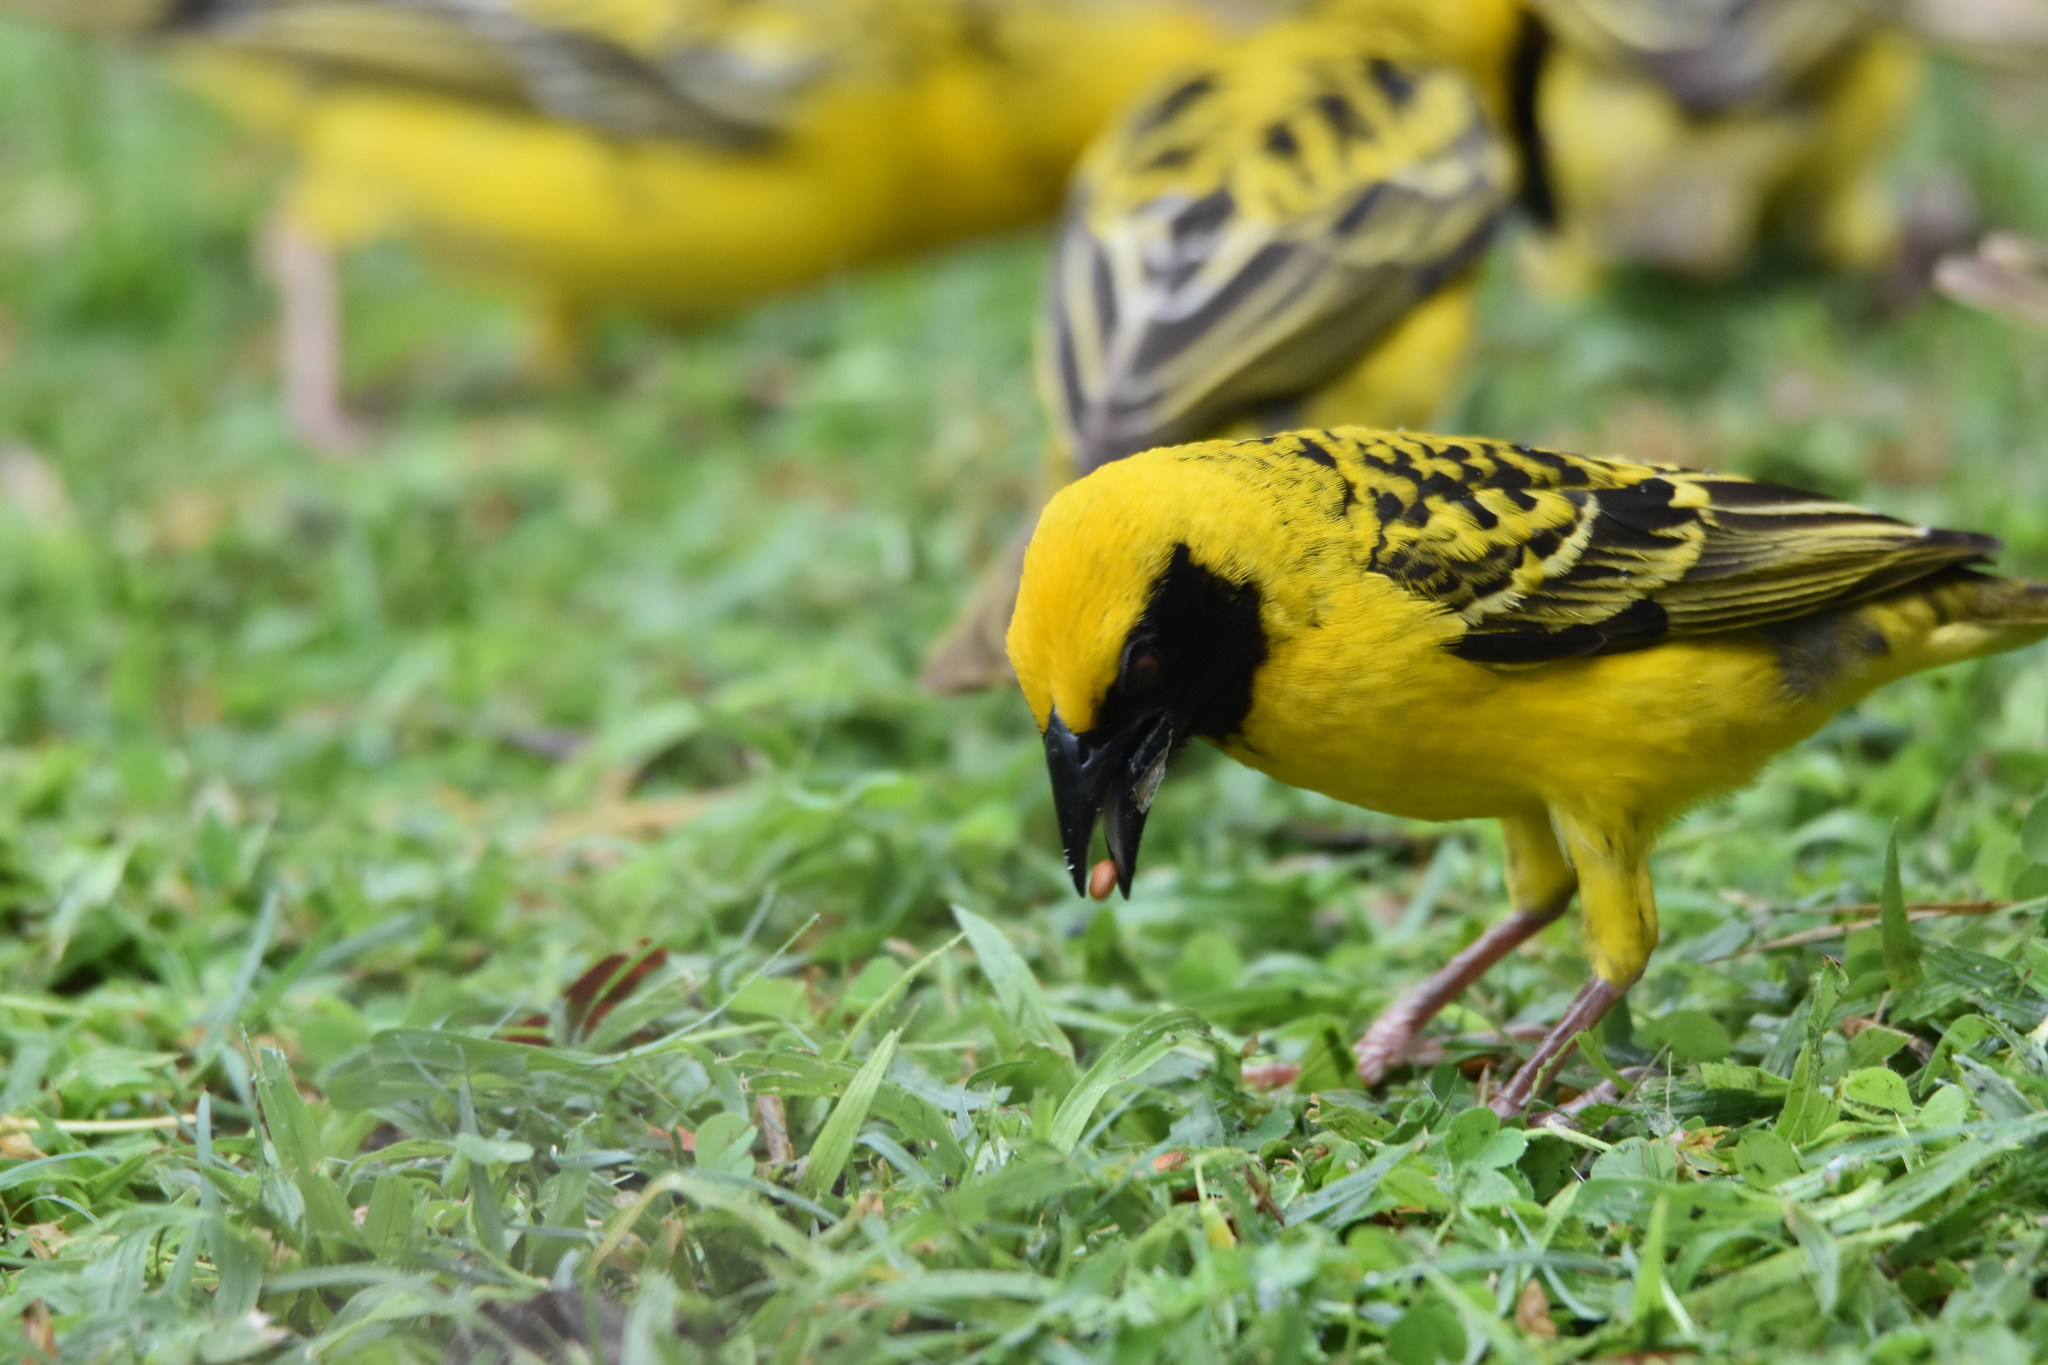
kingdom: Animalia
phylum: Chordata
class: Aves
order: Passeriformes
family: Ploceidae
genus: Ploceus
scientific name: Ploceus cucullatus
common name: Village weaver
